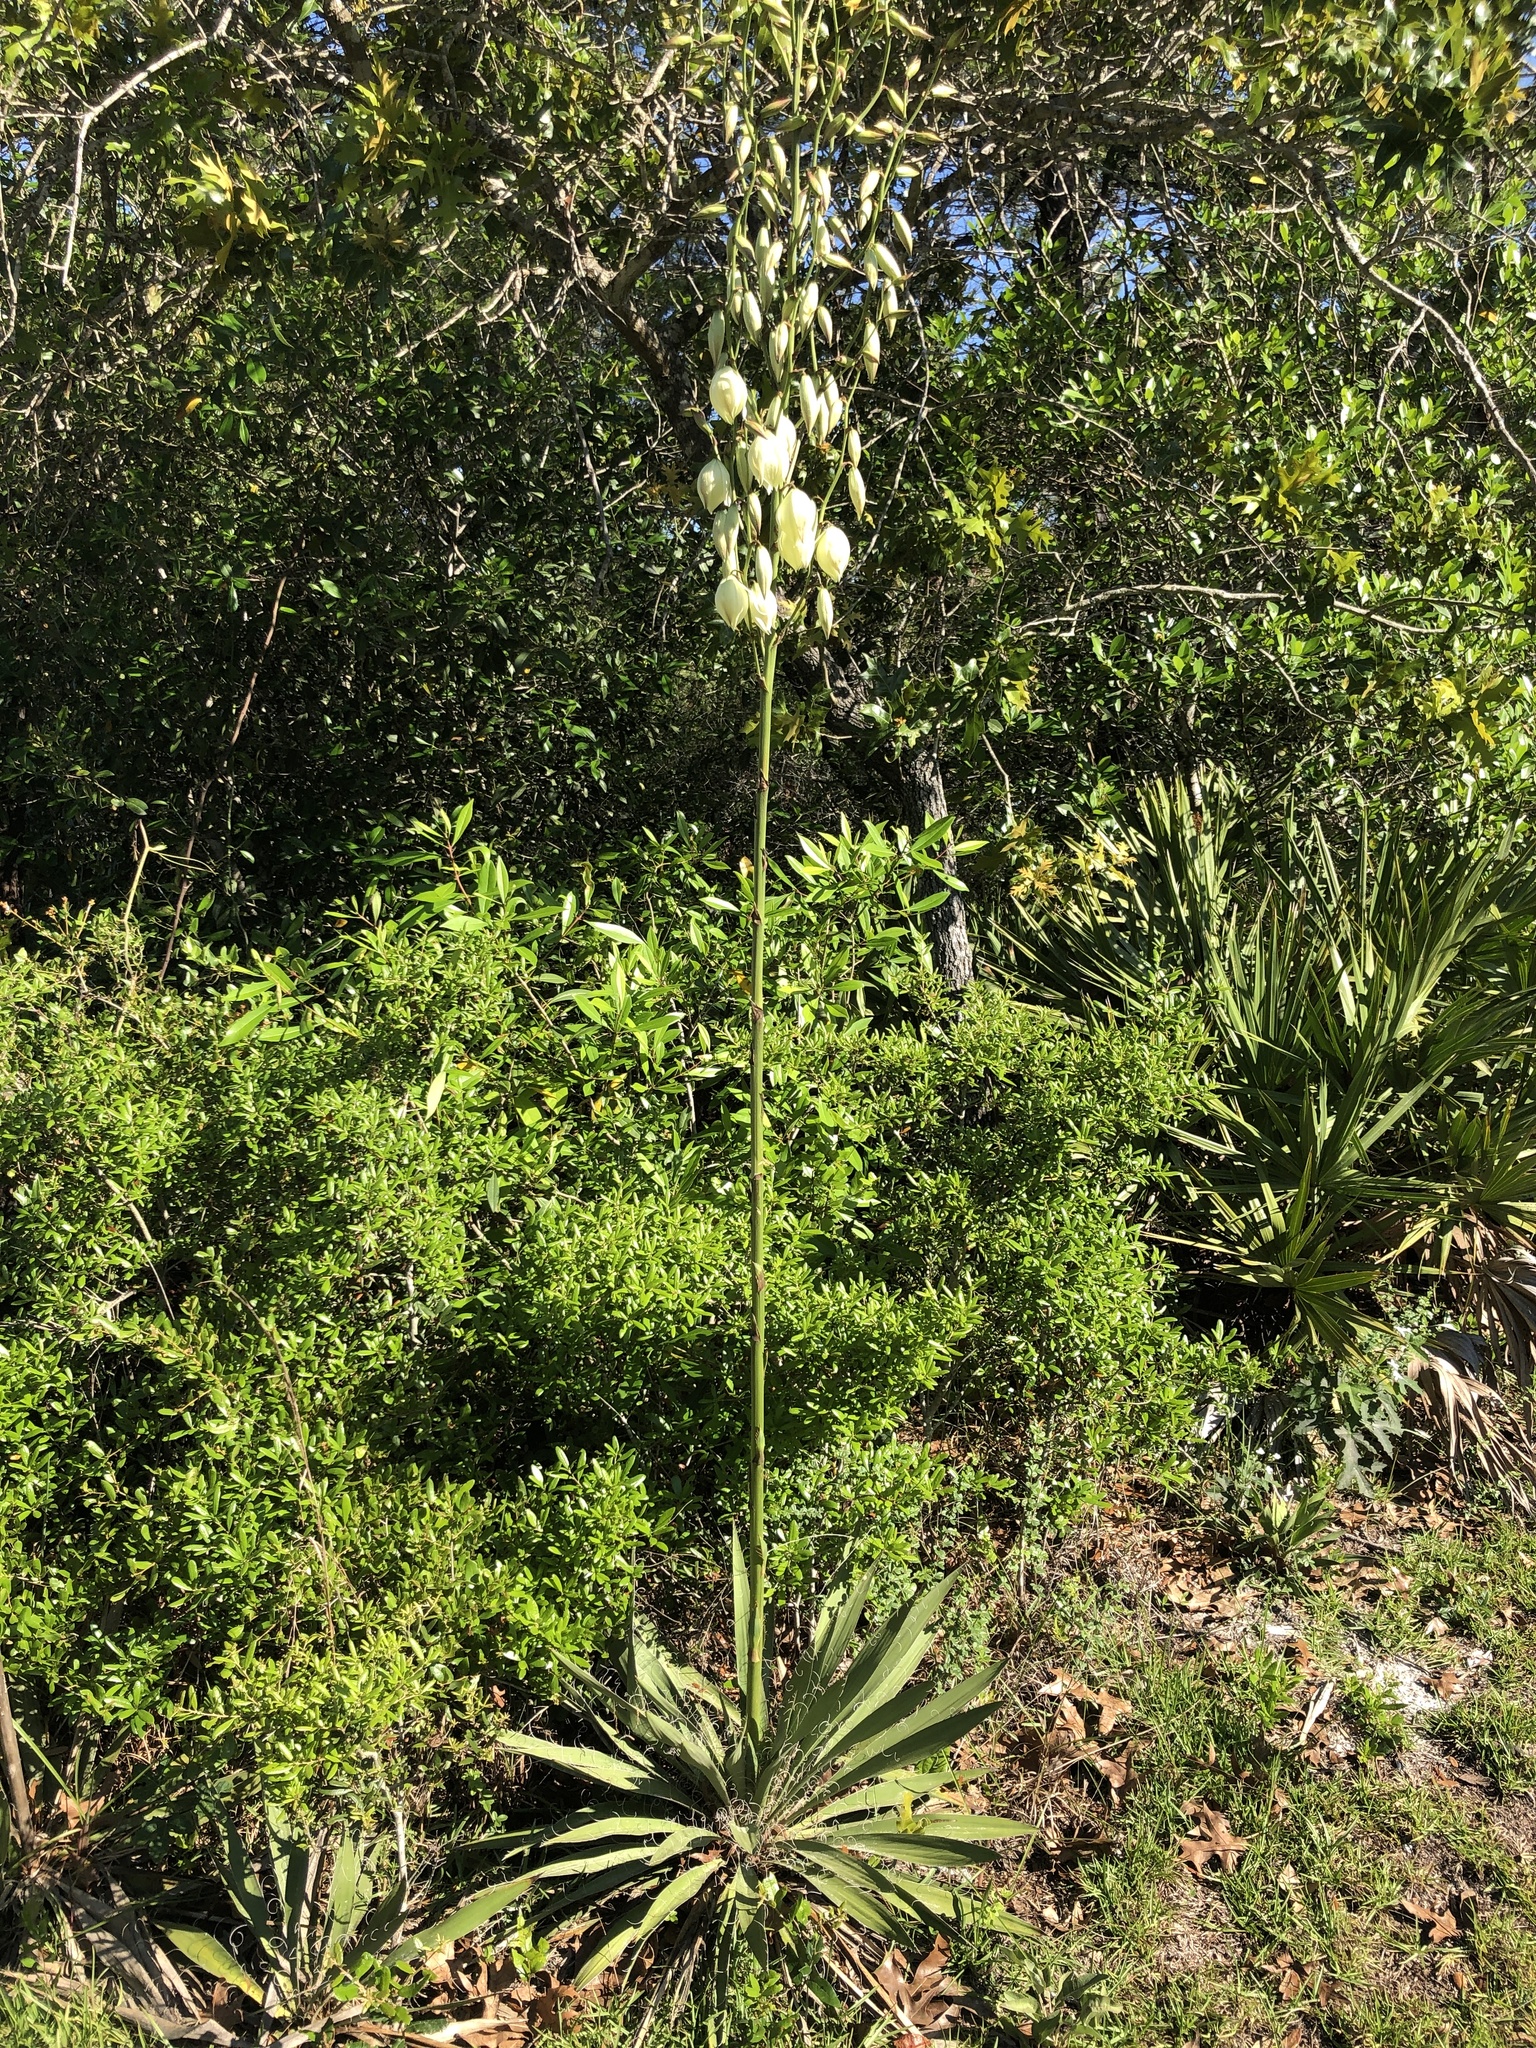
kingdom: Plantae
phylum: Tracheophyta
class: Liliopsida
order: Asparagales
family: Asparagaceae
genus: Yucca
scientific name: Yucca filamentosa
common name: Adam's-needle
